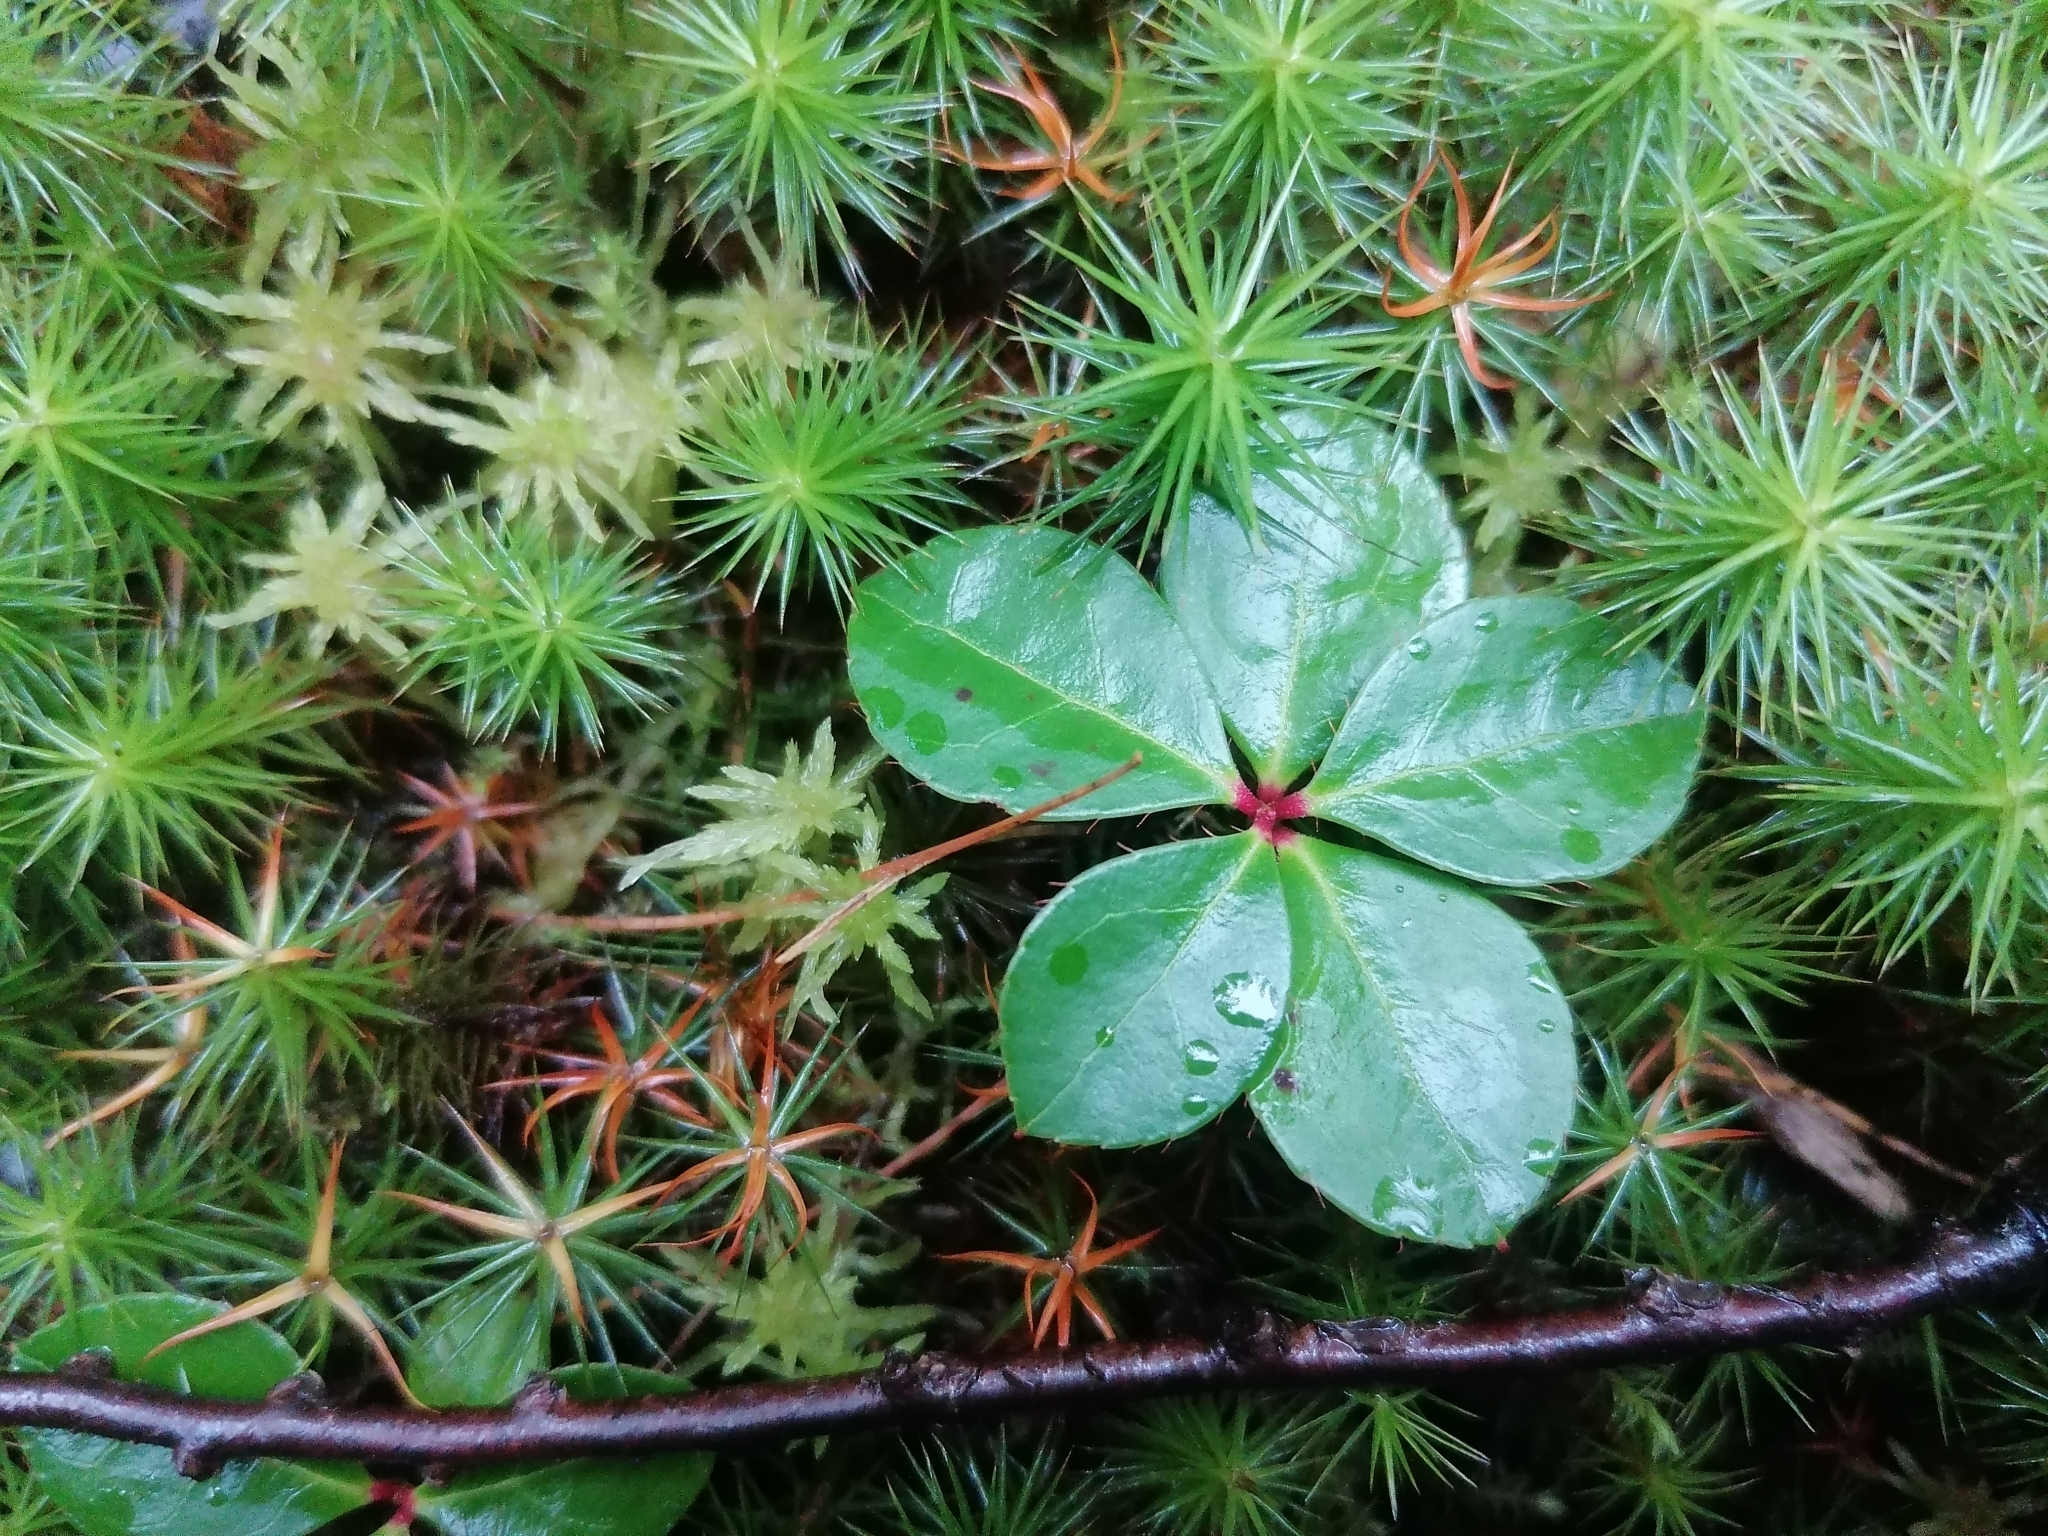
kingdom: Plantae
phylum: Tracheophyta
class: Magnoliopsida
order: Ericales
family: Ericaceae
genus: Gaultheria
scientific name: Gaultheria procumbens
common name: Checkerberry
